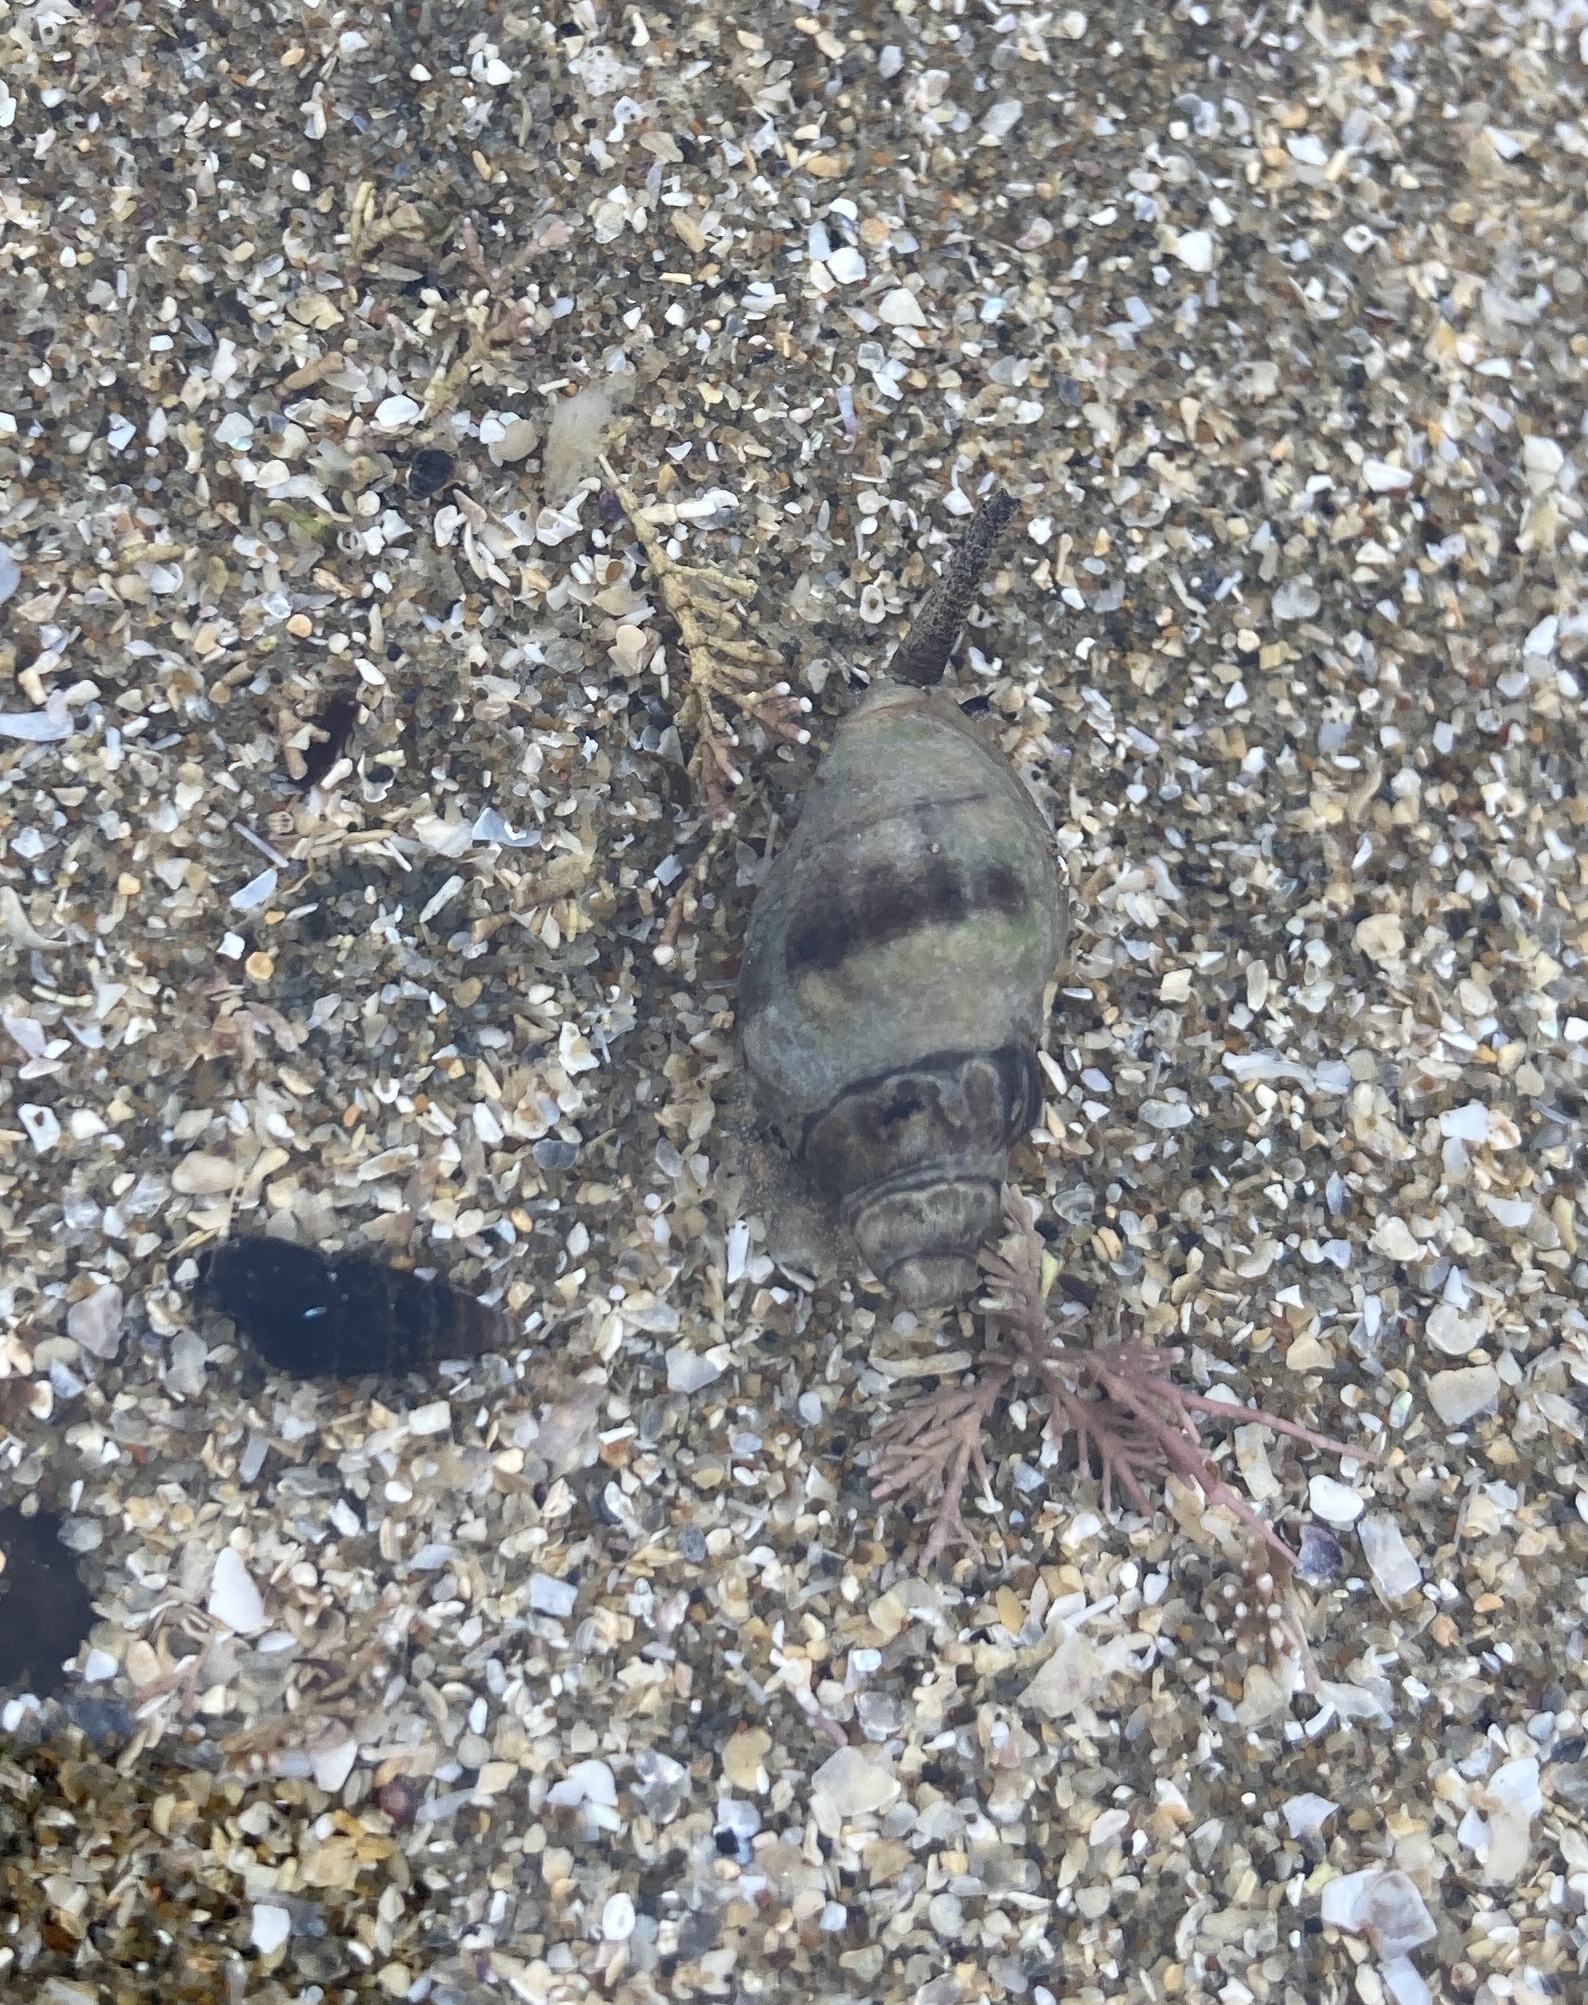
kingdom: Animalia
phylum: Mollusca
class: Gastropoda
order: Neogastropoda
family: Cominellidae
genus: Cominella
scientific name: Cominella glandiformis
